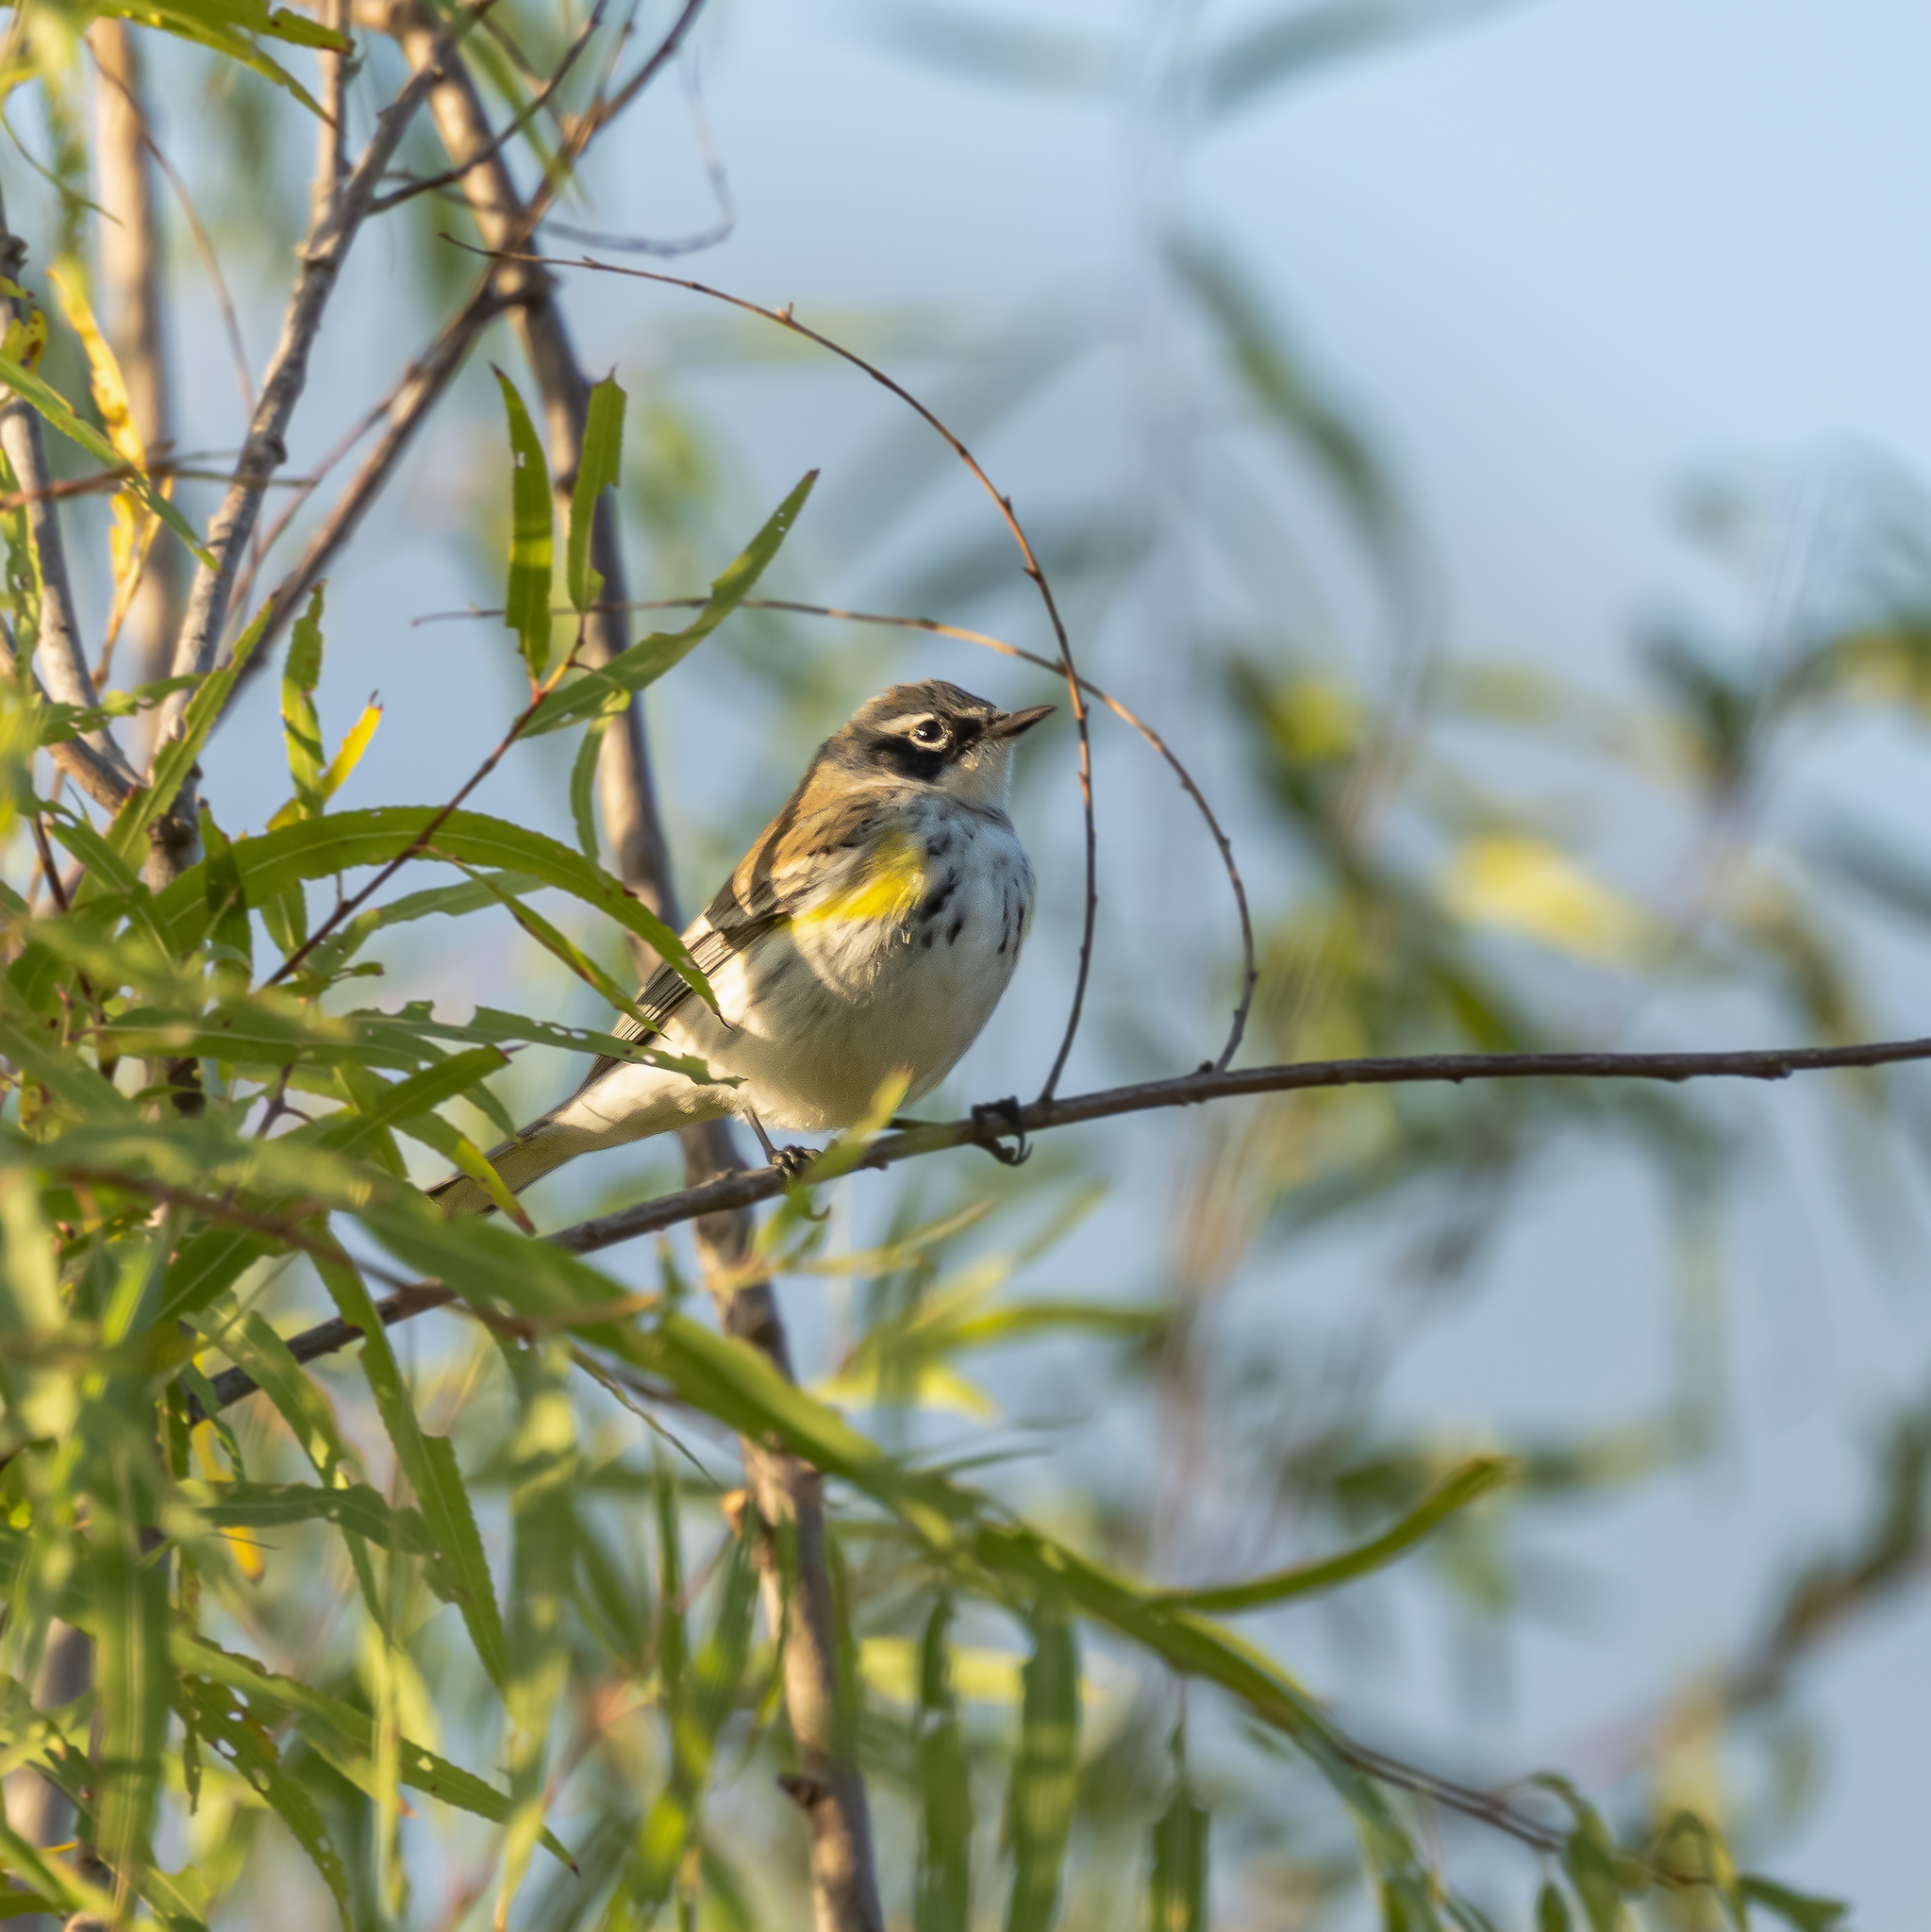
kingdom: Animalia
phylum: Chordata
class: Aves
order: Passeriformes
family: Parulidae
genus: Setophaga
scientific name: Setophaga coronata
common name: Myrtle warbler
